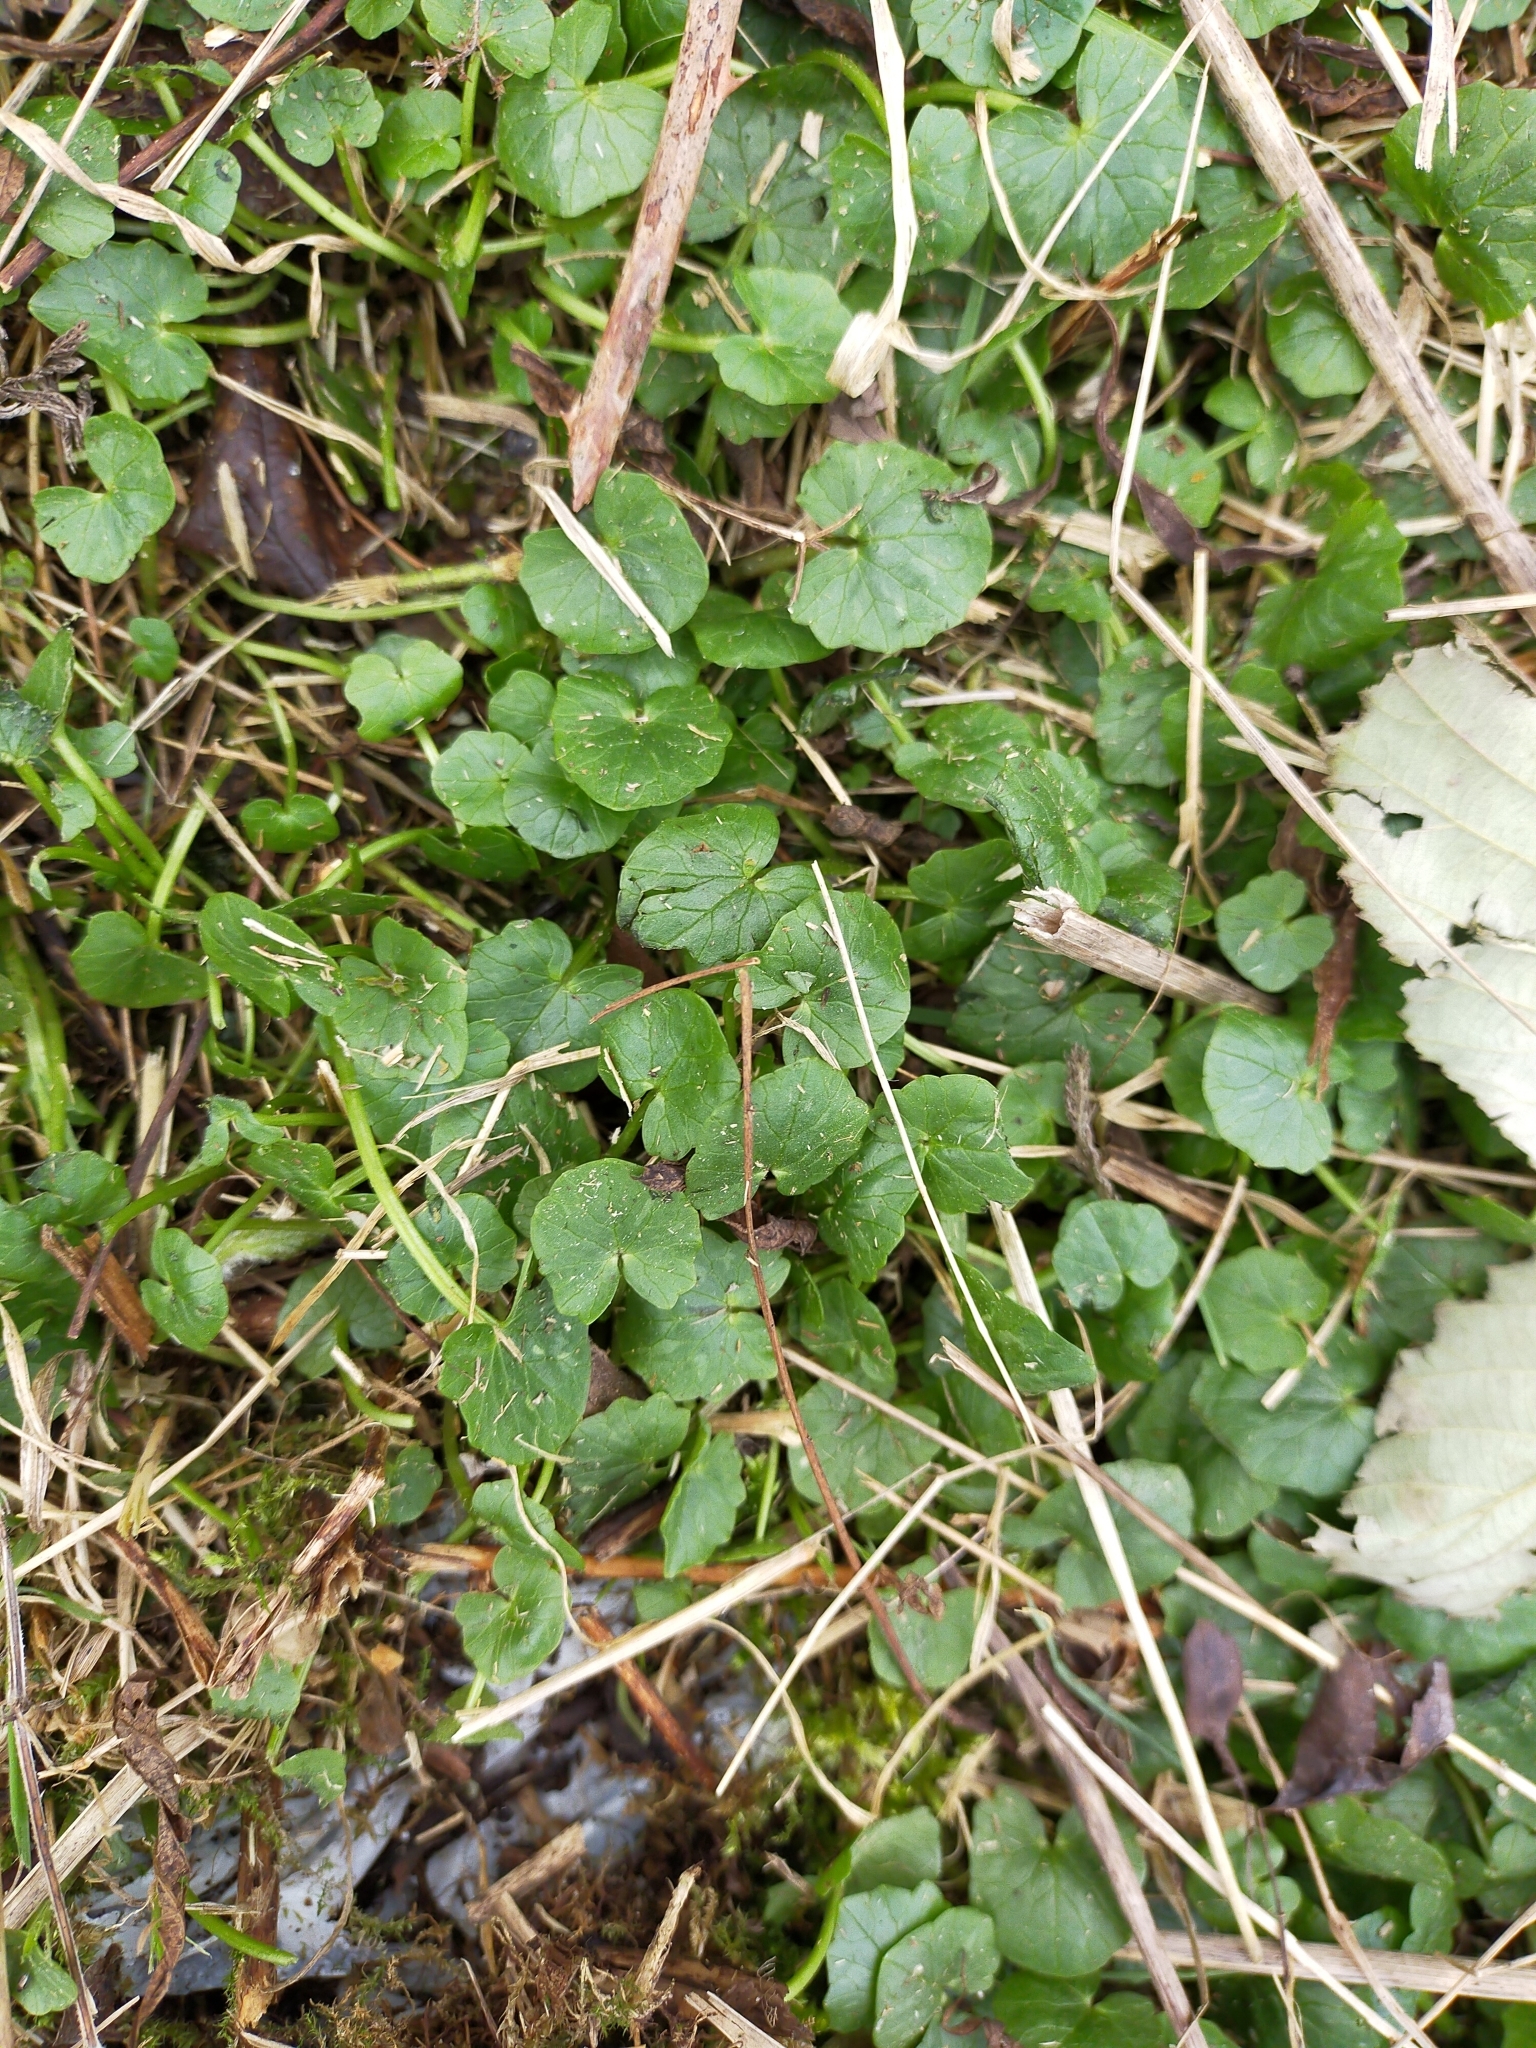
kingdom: Plantae
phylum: Tracheophyta
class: Magnoliopsida
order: Ranunculales
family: Ranunculaceae
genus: Ficaria
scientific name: Ficaria verna
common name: Lesser celandine
